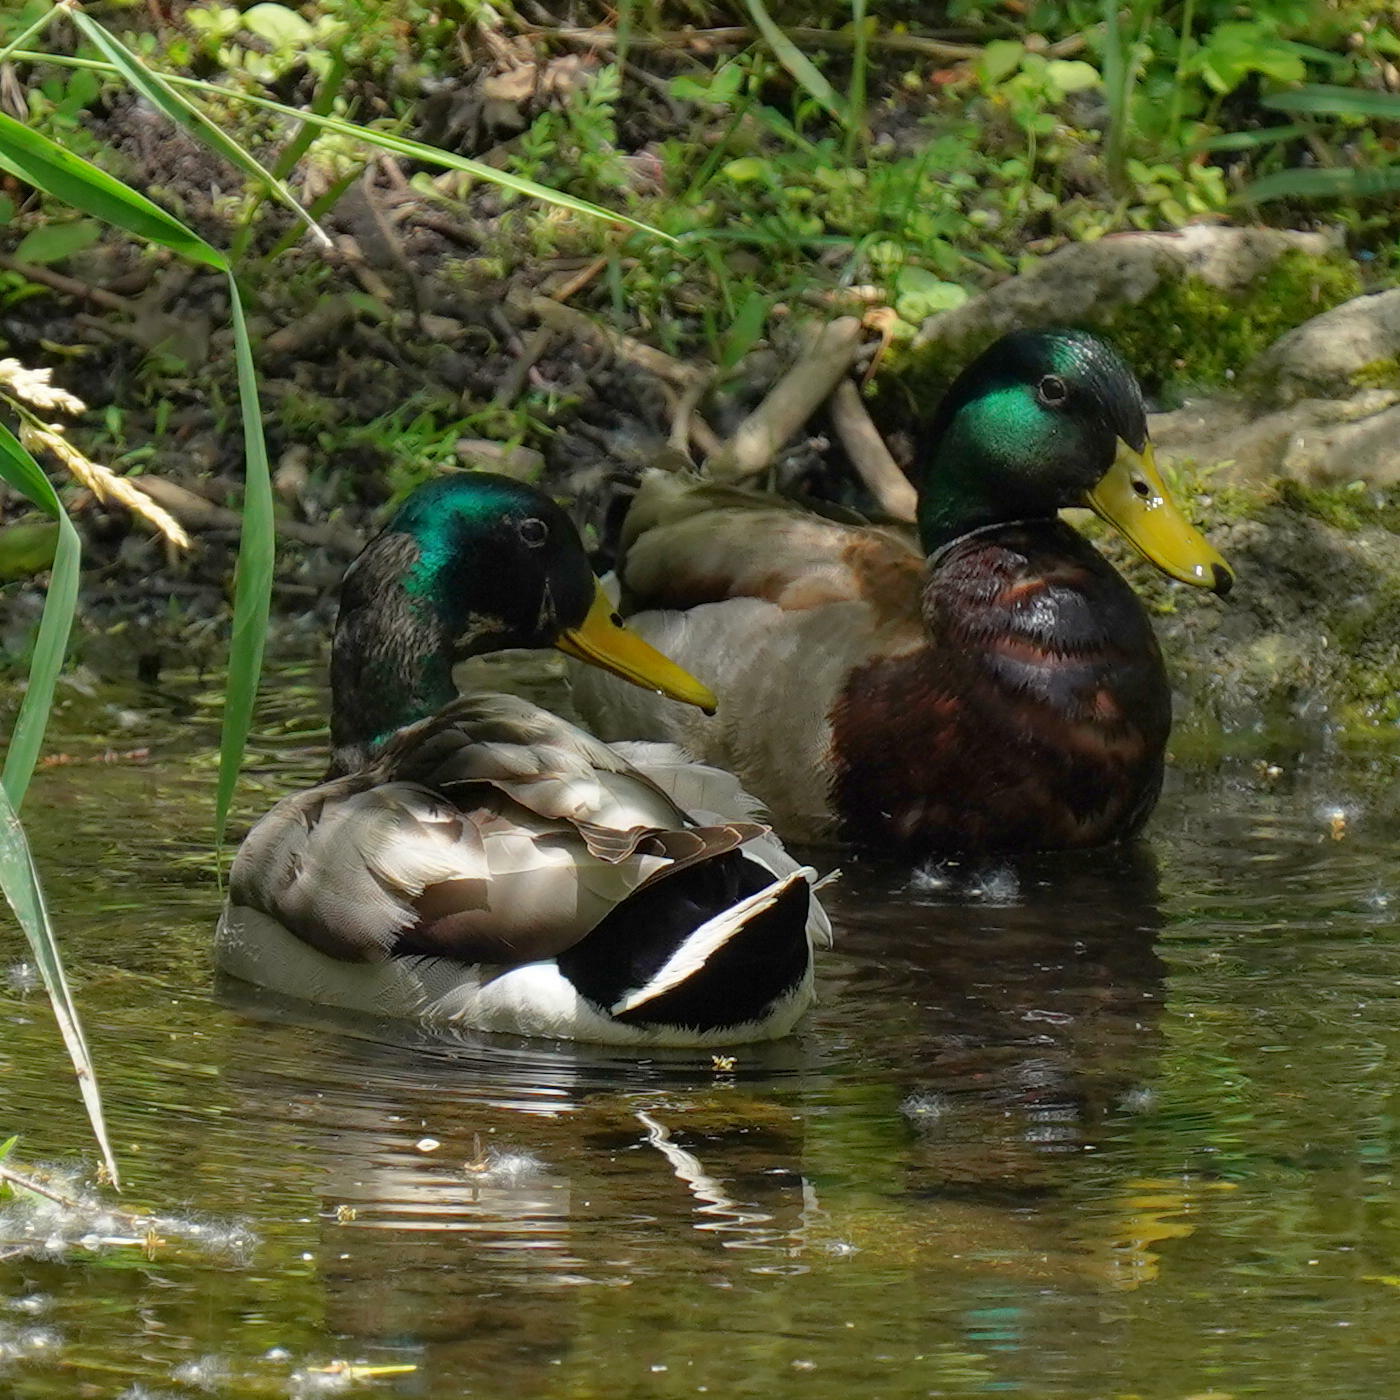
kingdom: Animalia
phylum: Chordata
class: Aves
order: Anseriformes
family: Anatidae
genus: Anas
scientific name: Anas platyrhynchos
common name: Mallard
